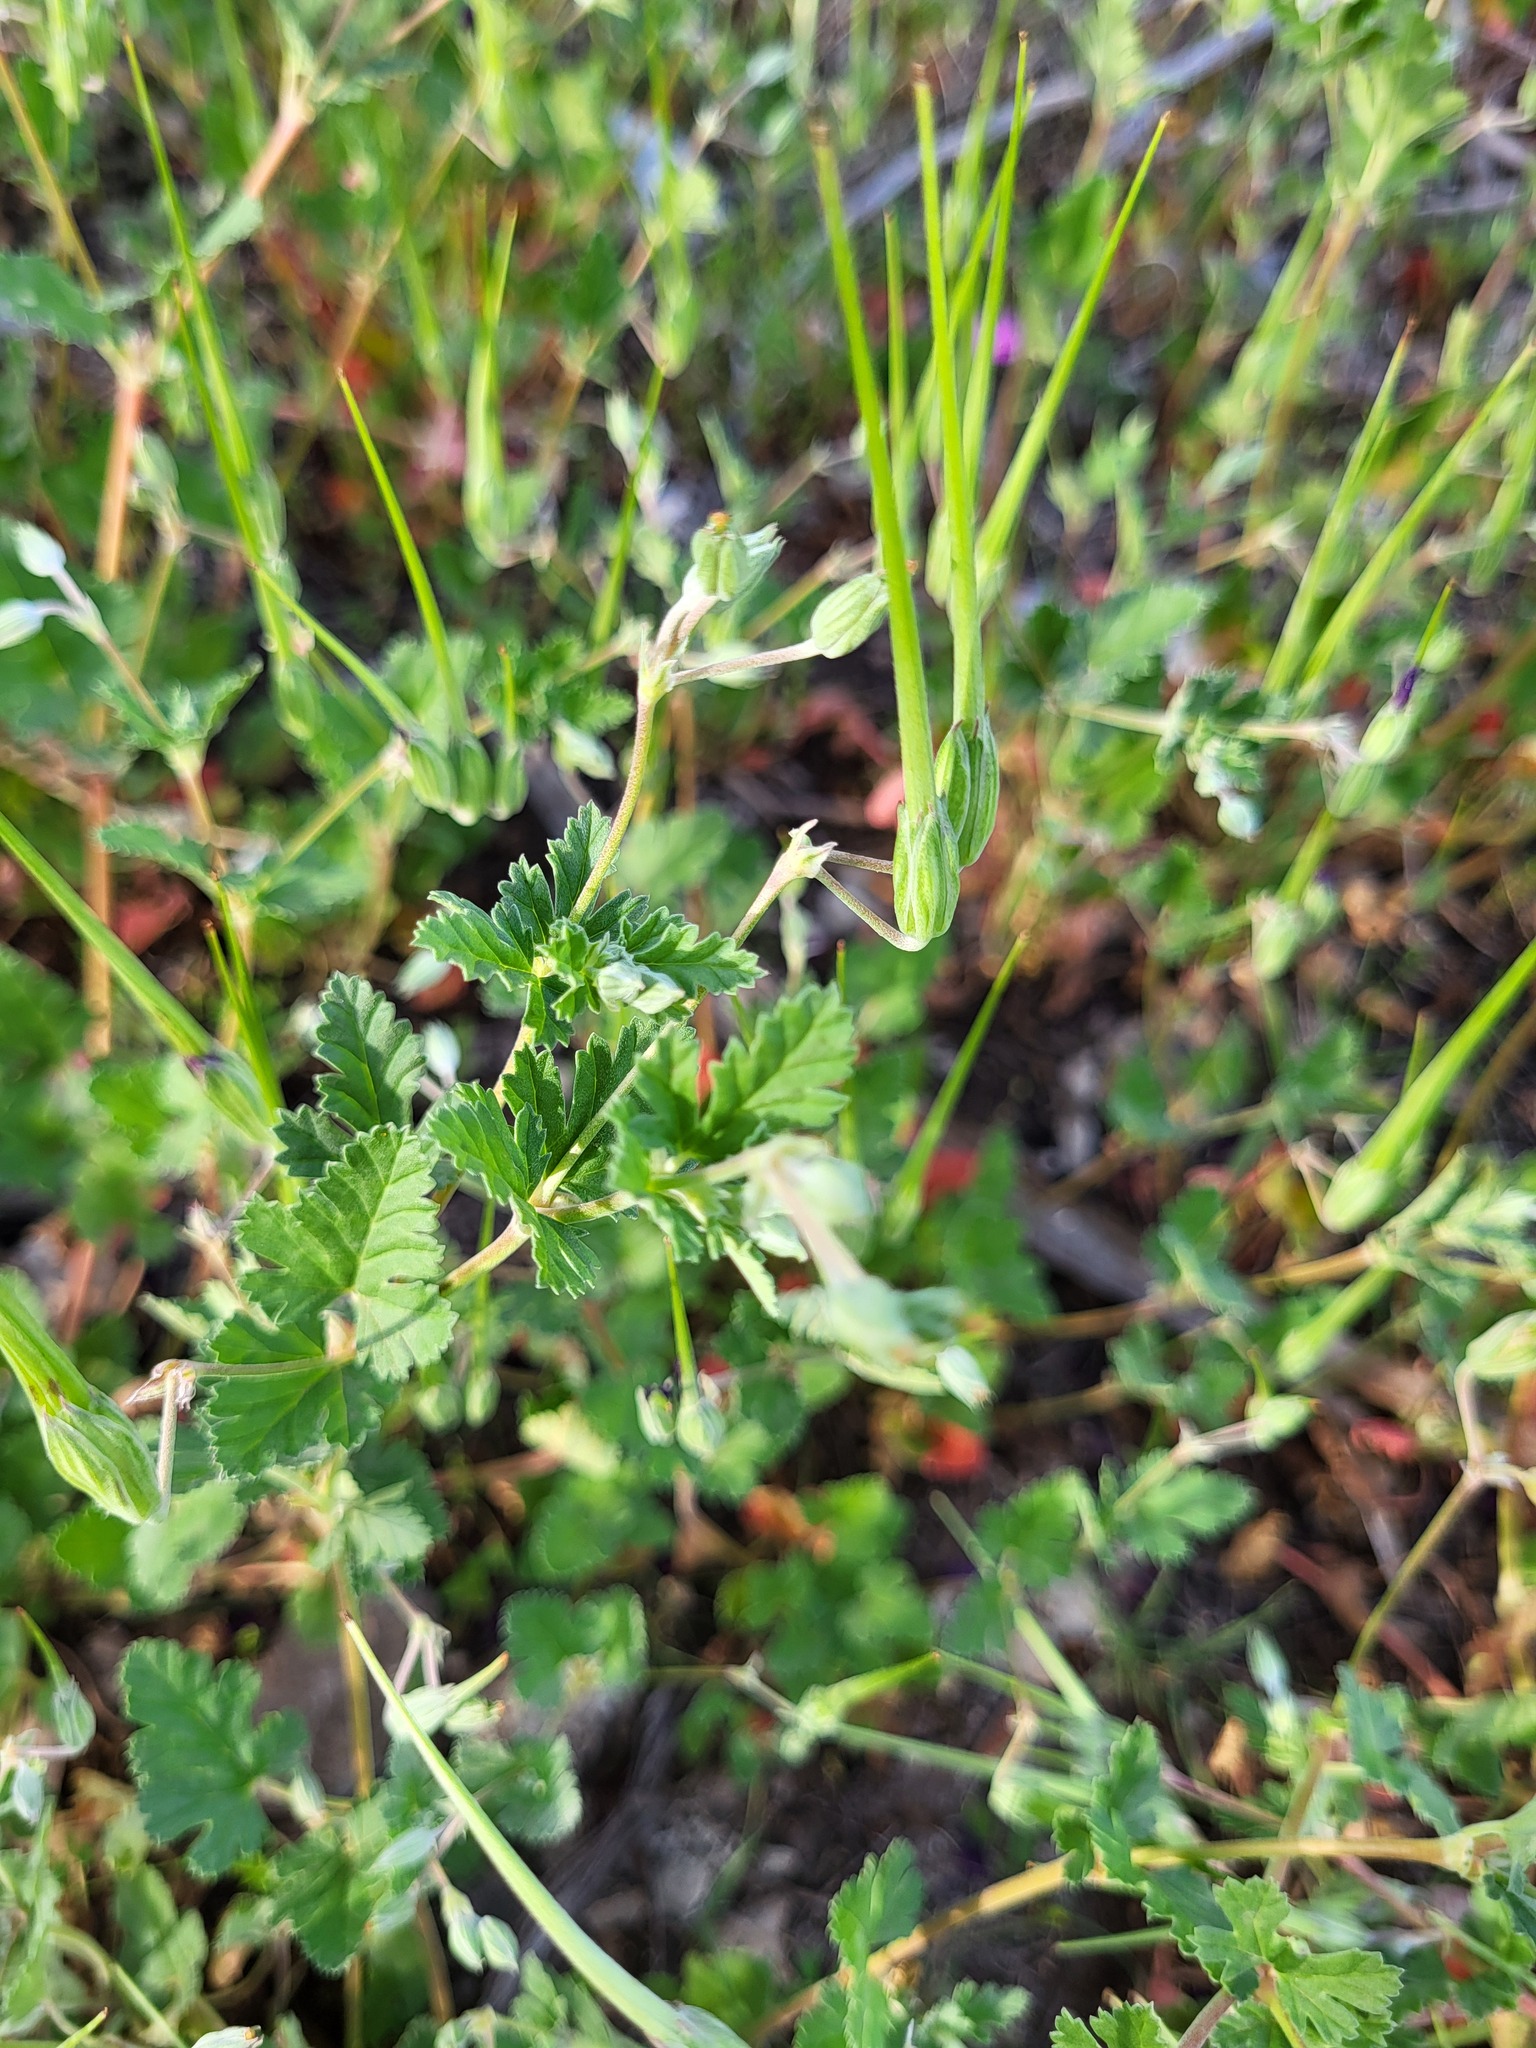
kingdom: Plantae
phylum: Tracheophyta
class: Magnoliopsida
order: Geraniales
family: Geraniaceae
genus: Erodium
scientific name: Erodium texanum
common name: Texas stork's-bill
